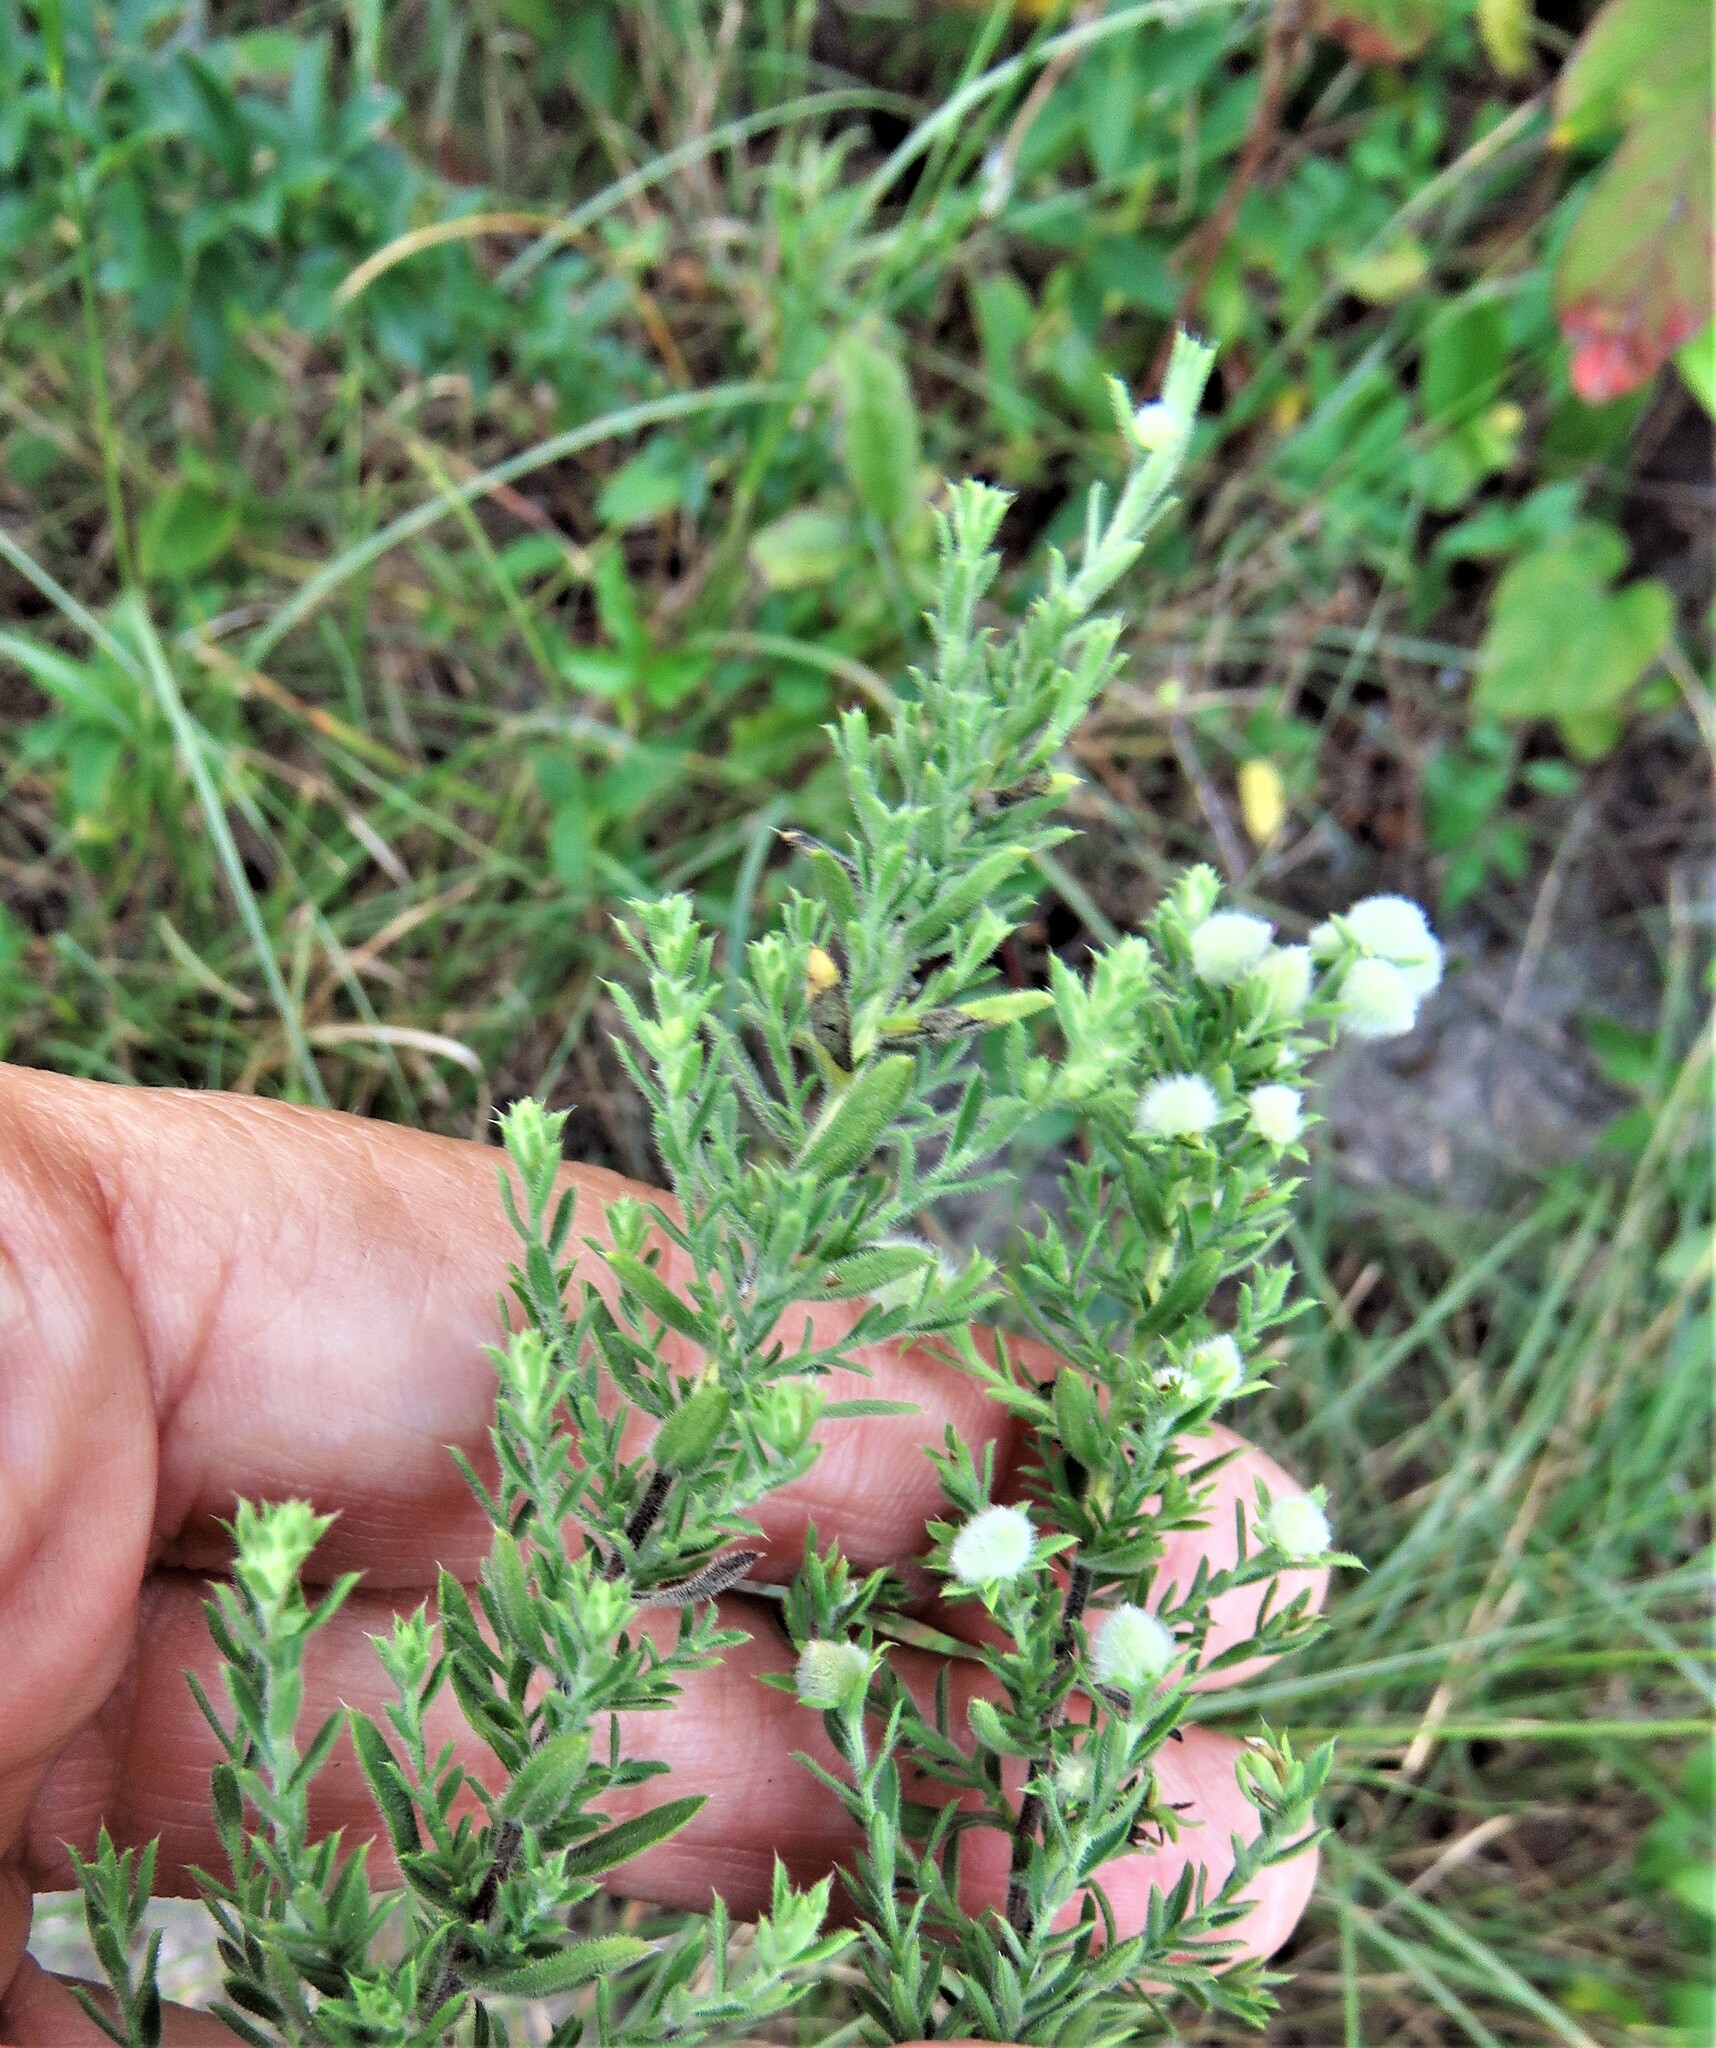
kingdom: Plantae
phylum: Tracheophyta
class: Magnoliopsida
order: Asterales
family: Asteraceae
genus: Symphyotrichum
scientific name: Symphyotrichum ericoides
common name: Heath aster
